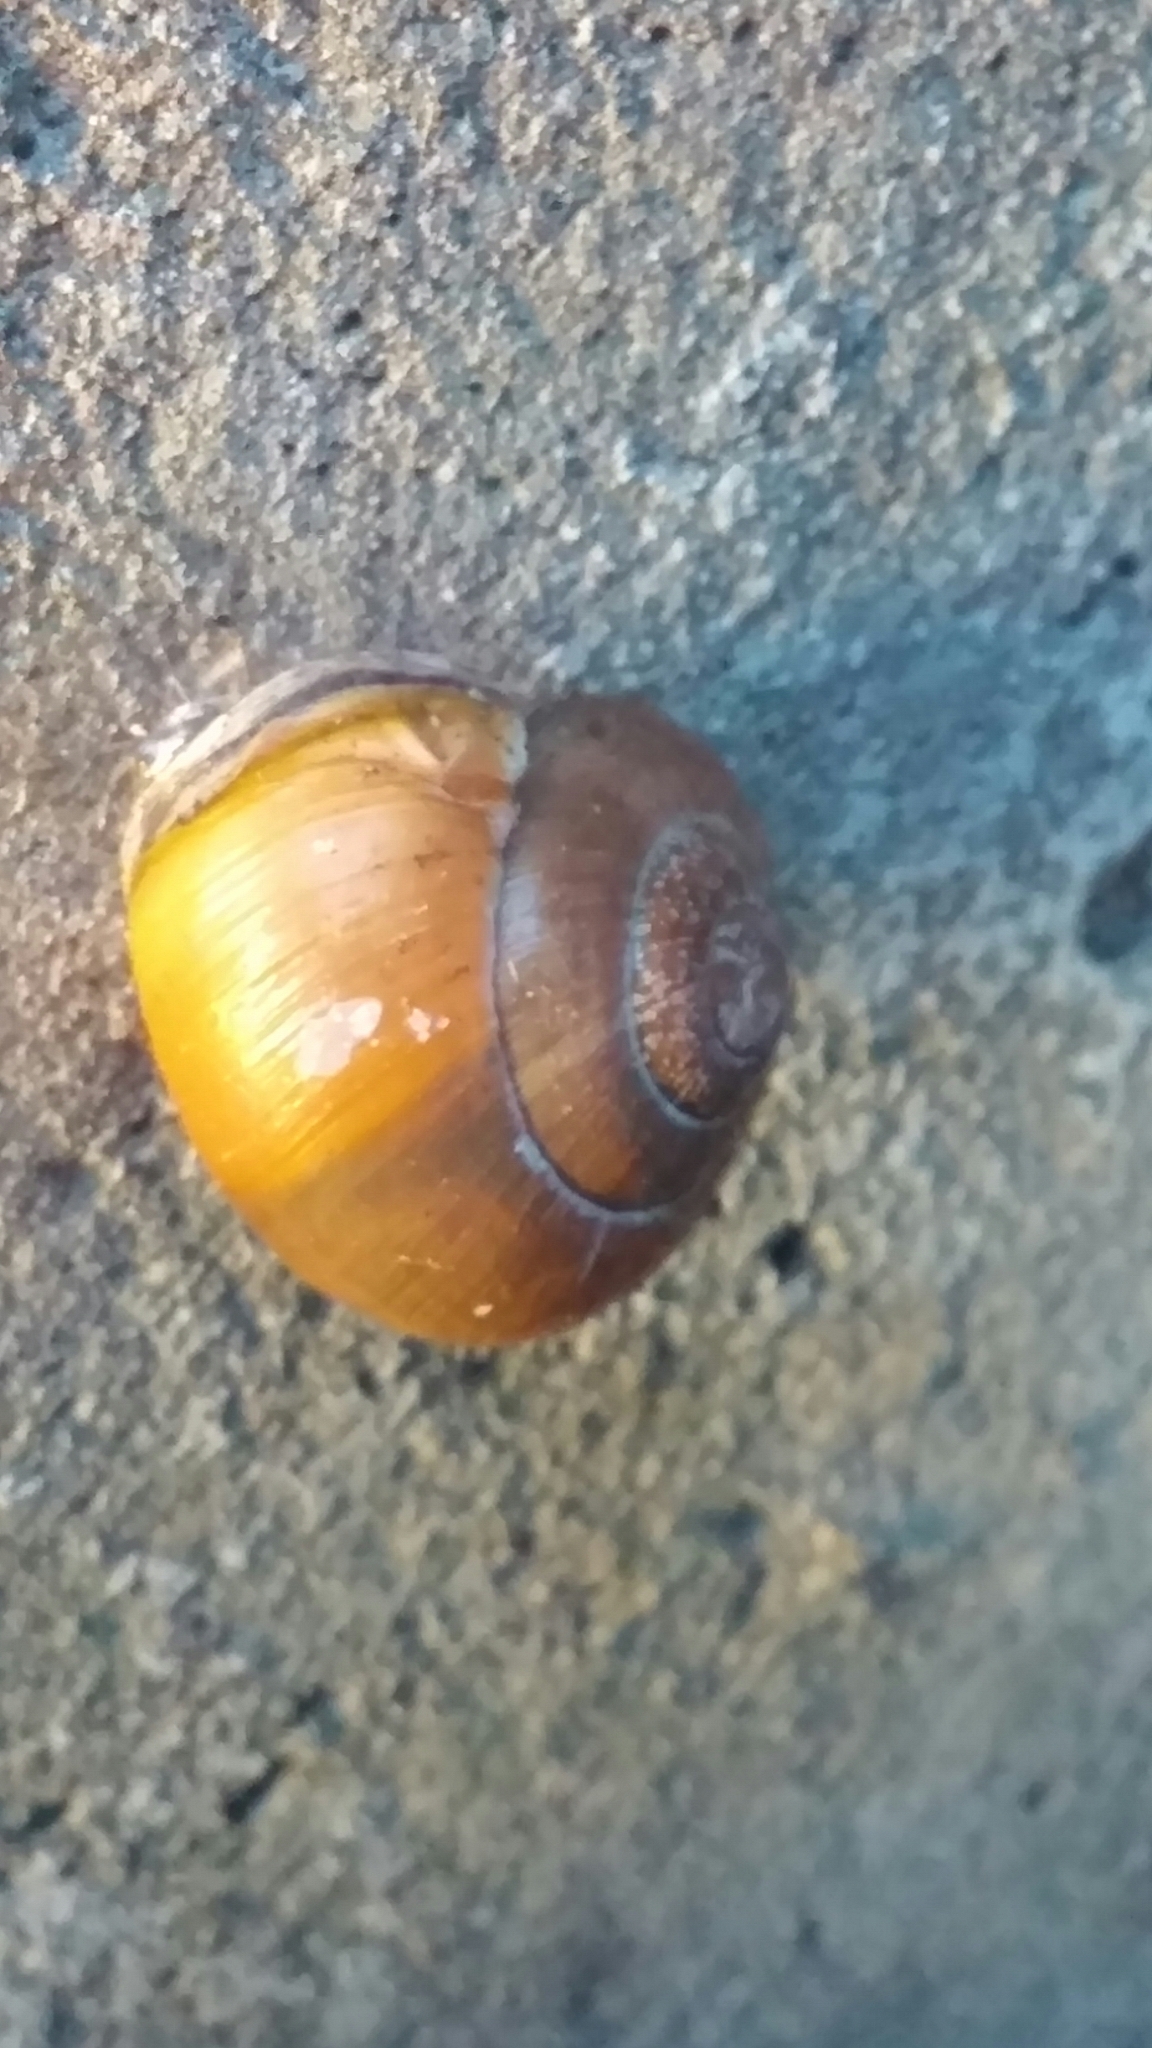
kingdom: Animalia
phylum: Mollusca
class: Gastropoda
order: Stylommatophora
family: Helicidae
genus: Cepaea
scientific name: Cepaea nemoralis
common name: Grovesnail
